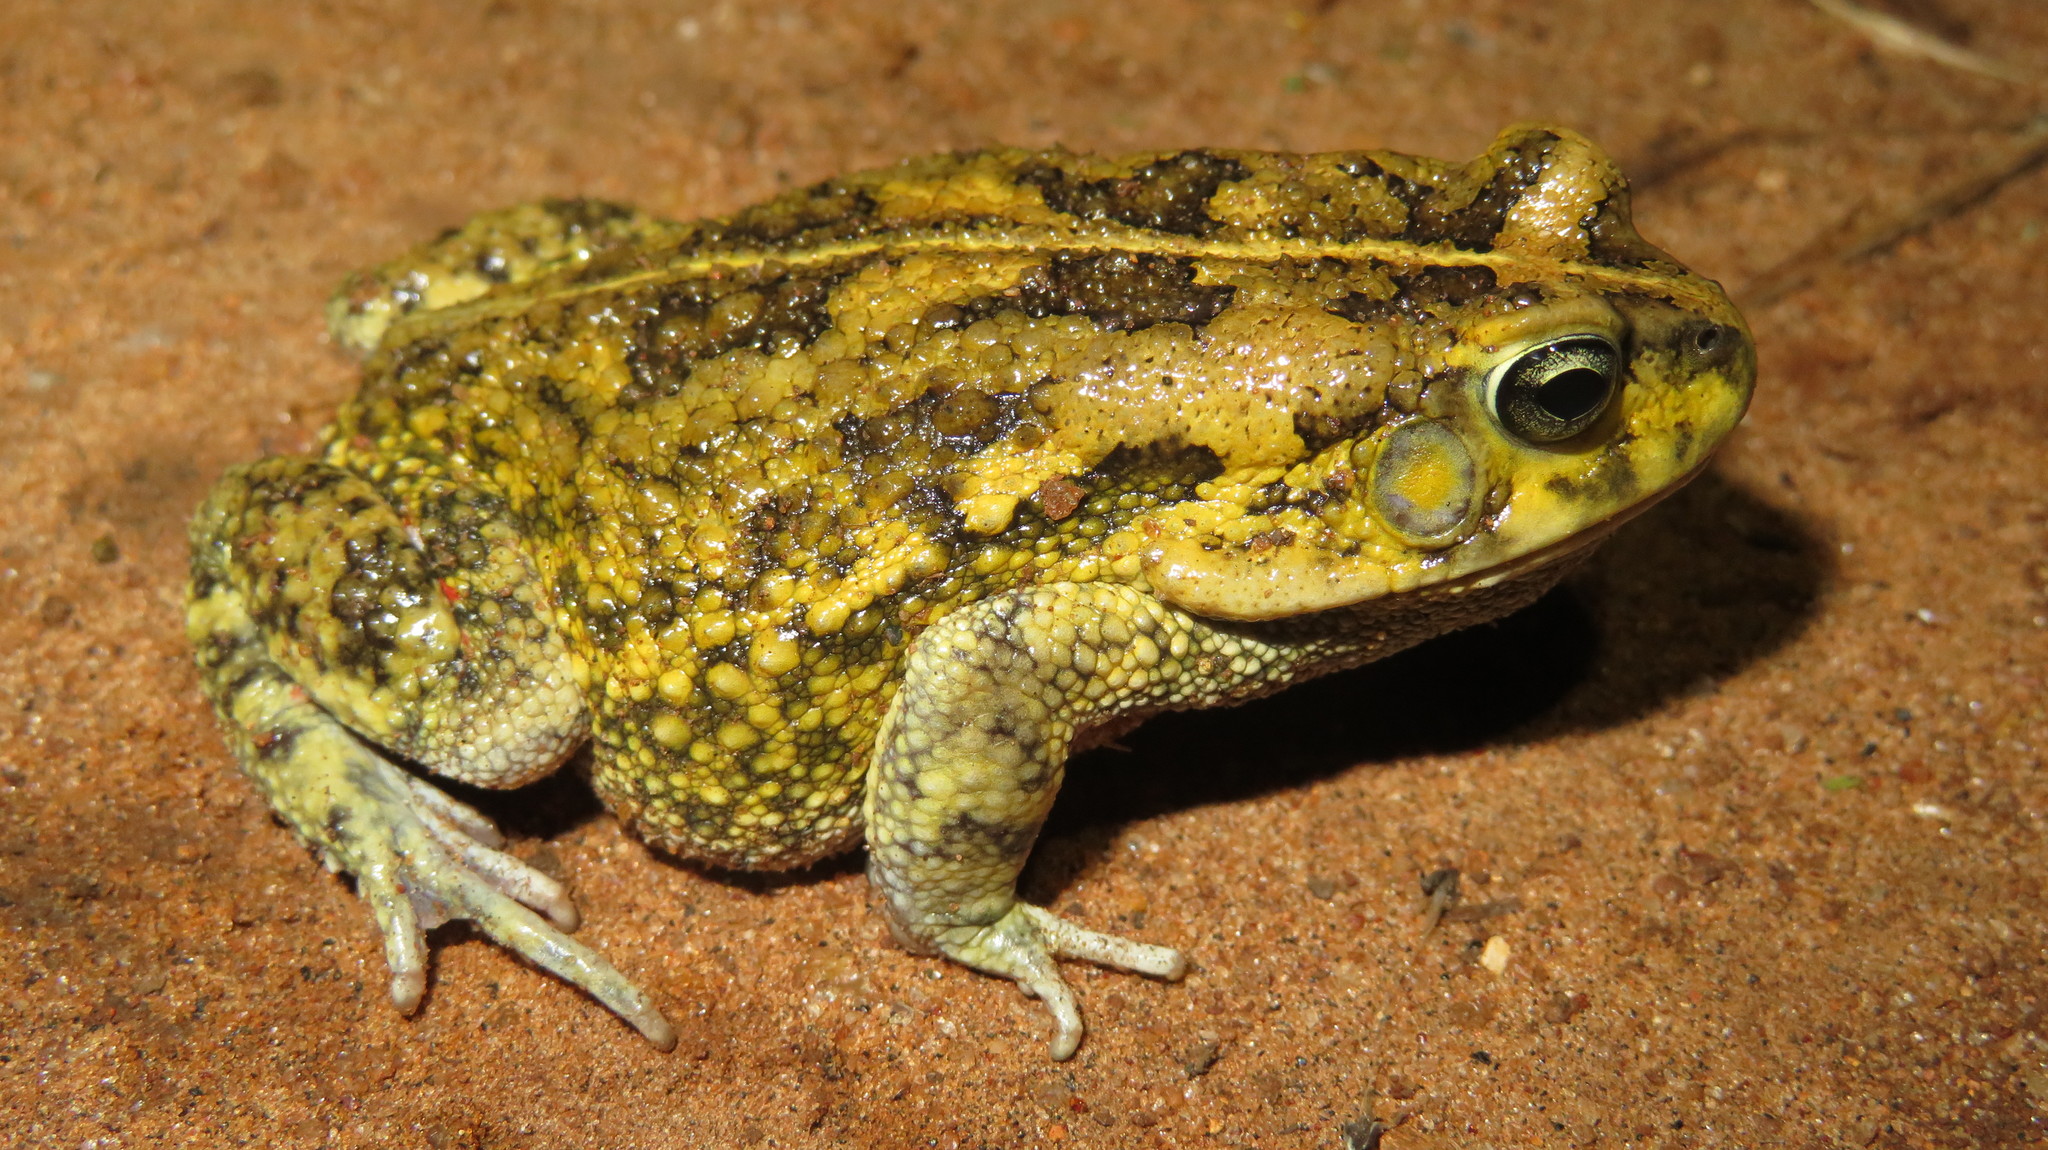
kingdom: Animalia
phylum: Chordata
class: Amphibia
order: Anura
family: Bufonidae
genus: Sclerophrys
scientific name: Sclerophrys gutturalis
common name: African common toad
